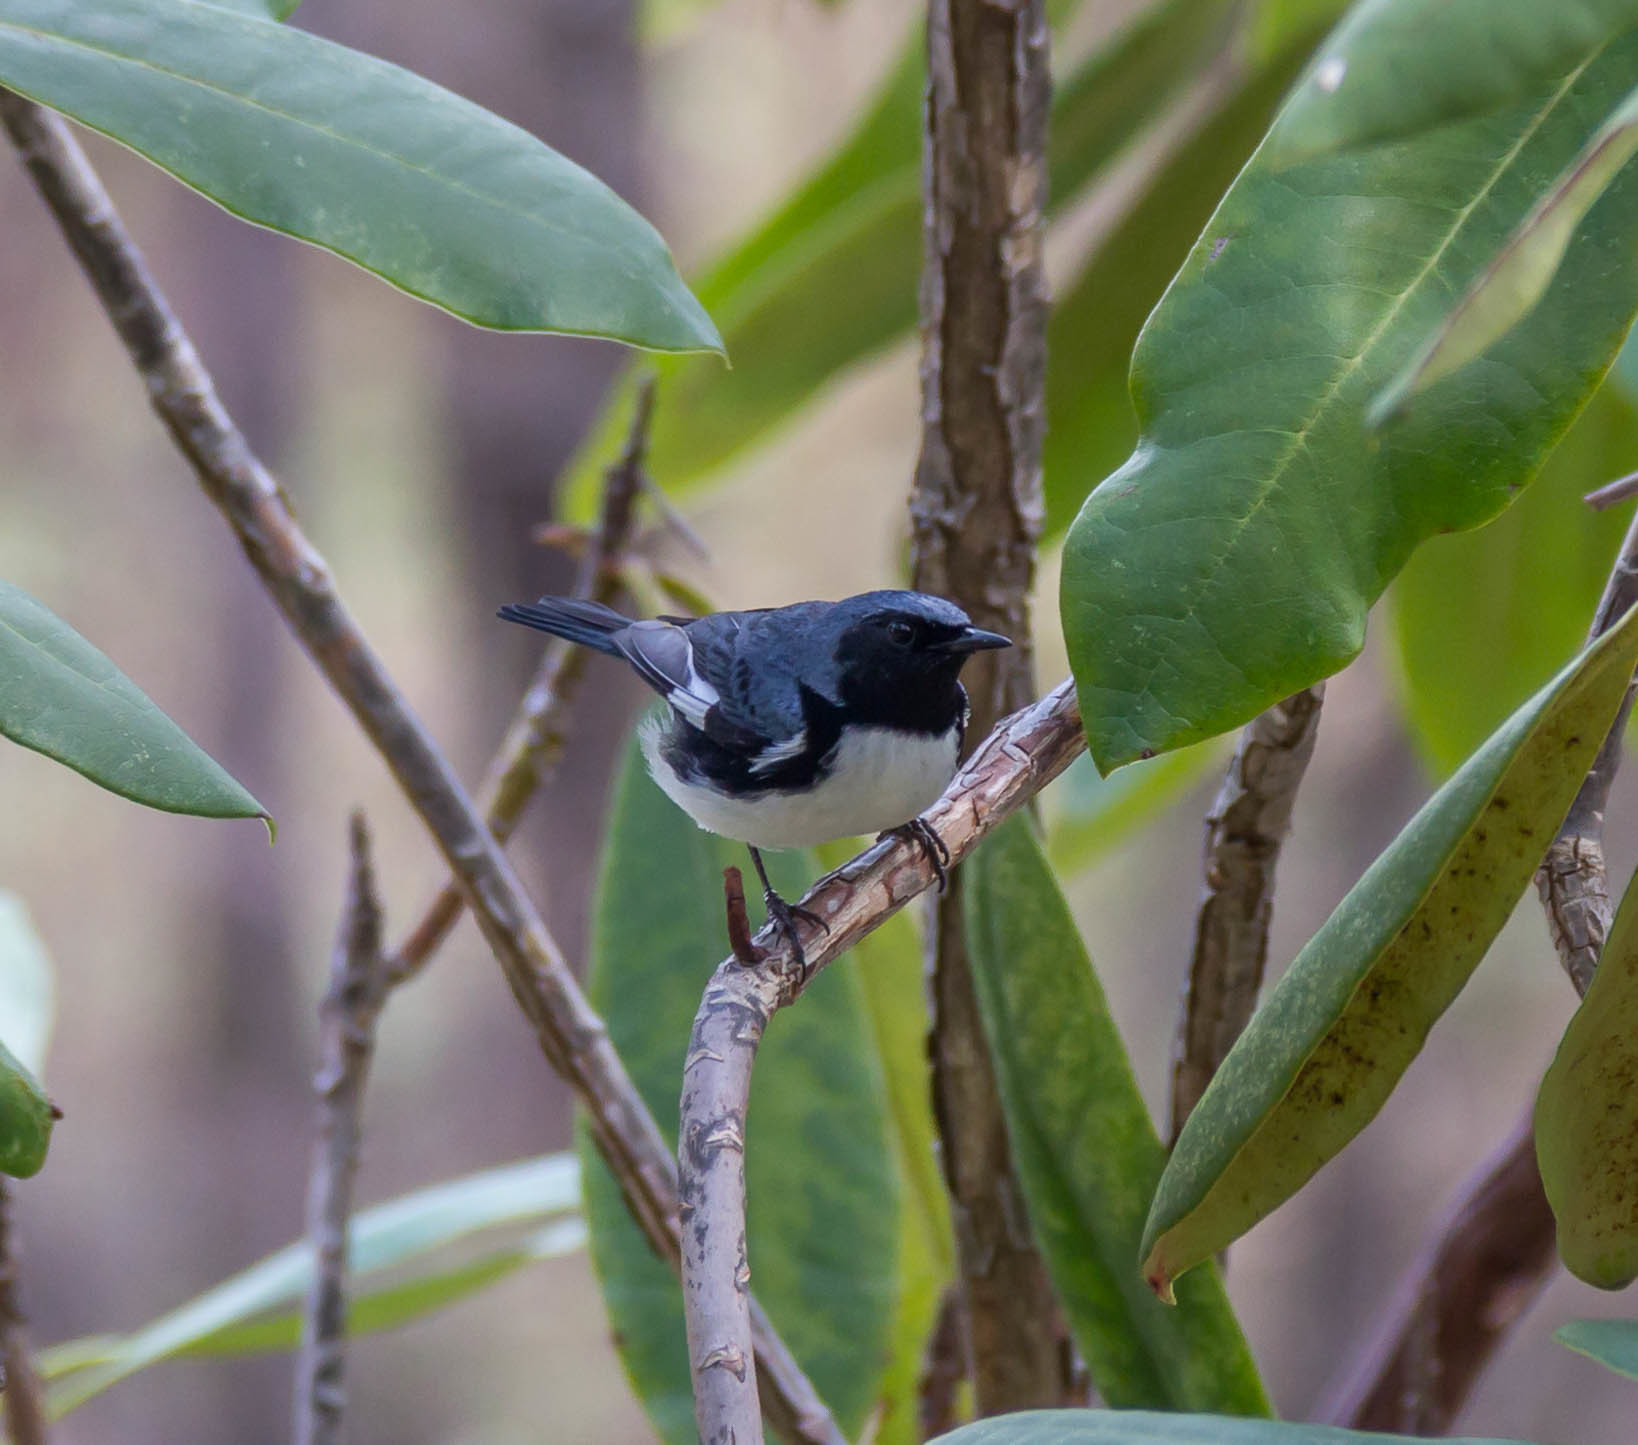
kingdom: Animalia
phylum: Chordata
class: Aves
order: Passeriformes
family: Parulidae
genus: Setophaga
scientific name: Setophaga caerulescens
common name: Black-throated blue warbler
